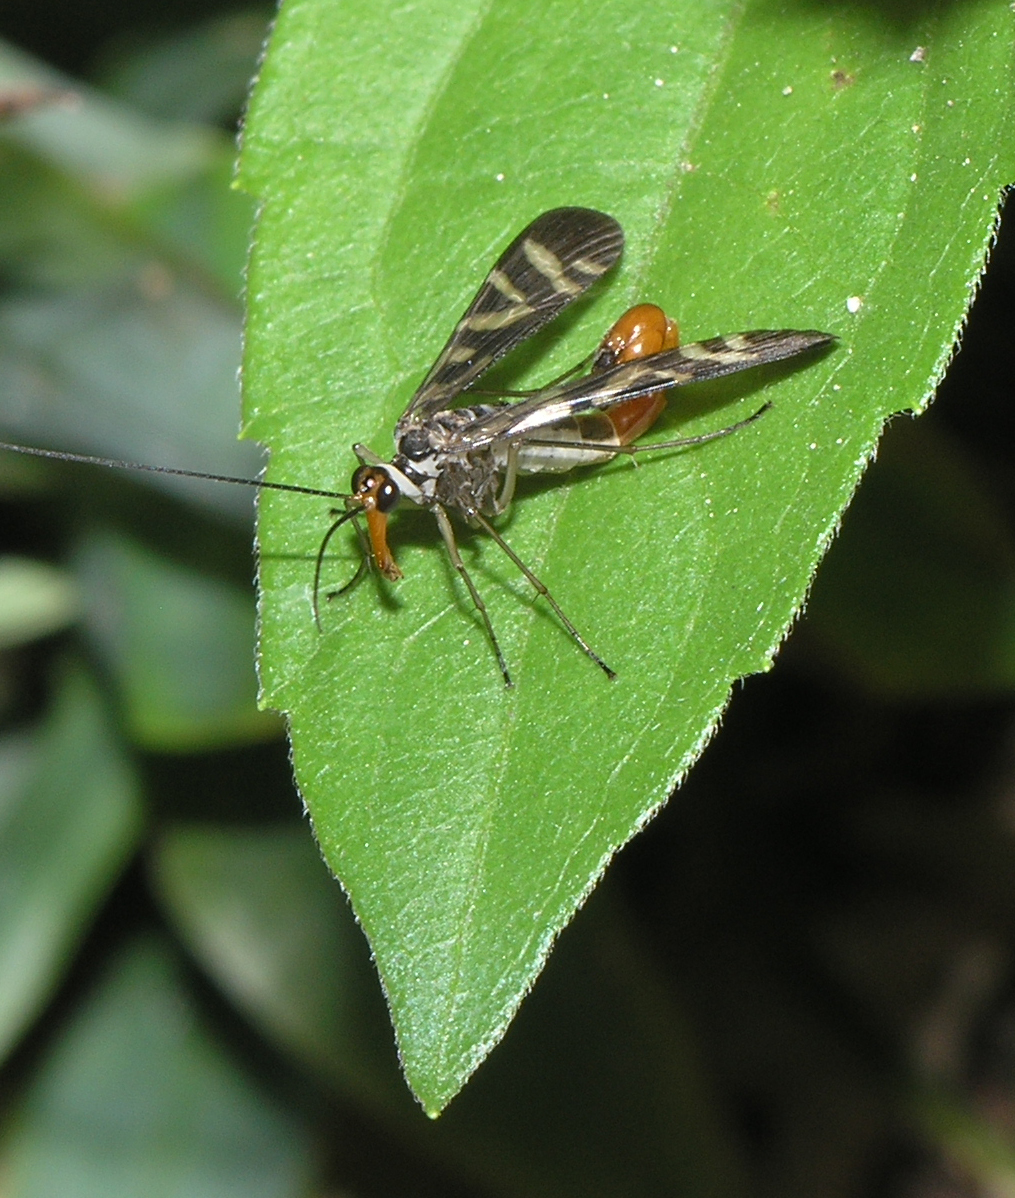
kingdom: Animalia
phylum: Arthropoda
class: Insecta
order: Mecoptera
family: Panorpidae
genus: Neopanorpa
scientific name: Neopanorpa harmandi
